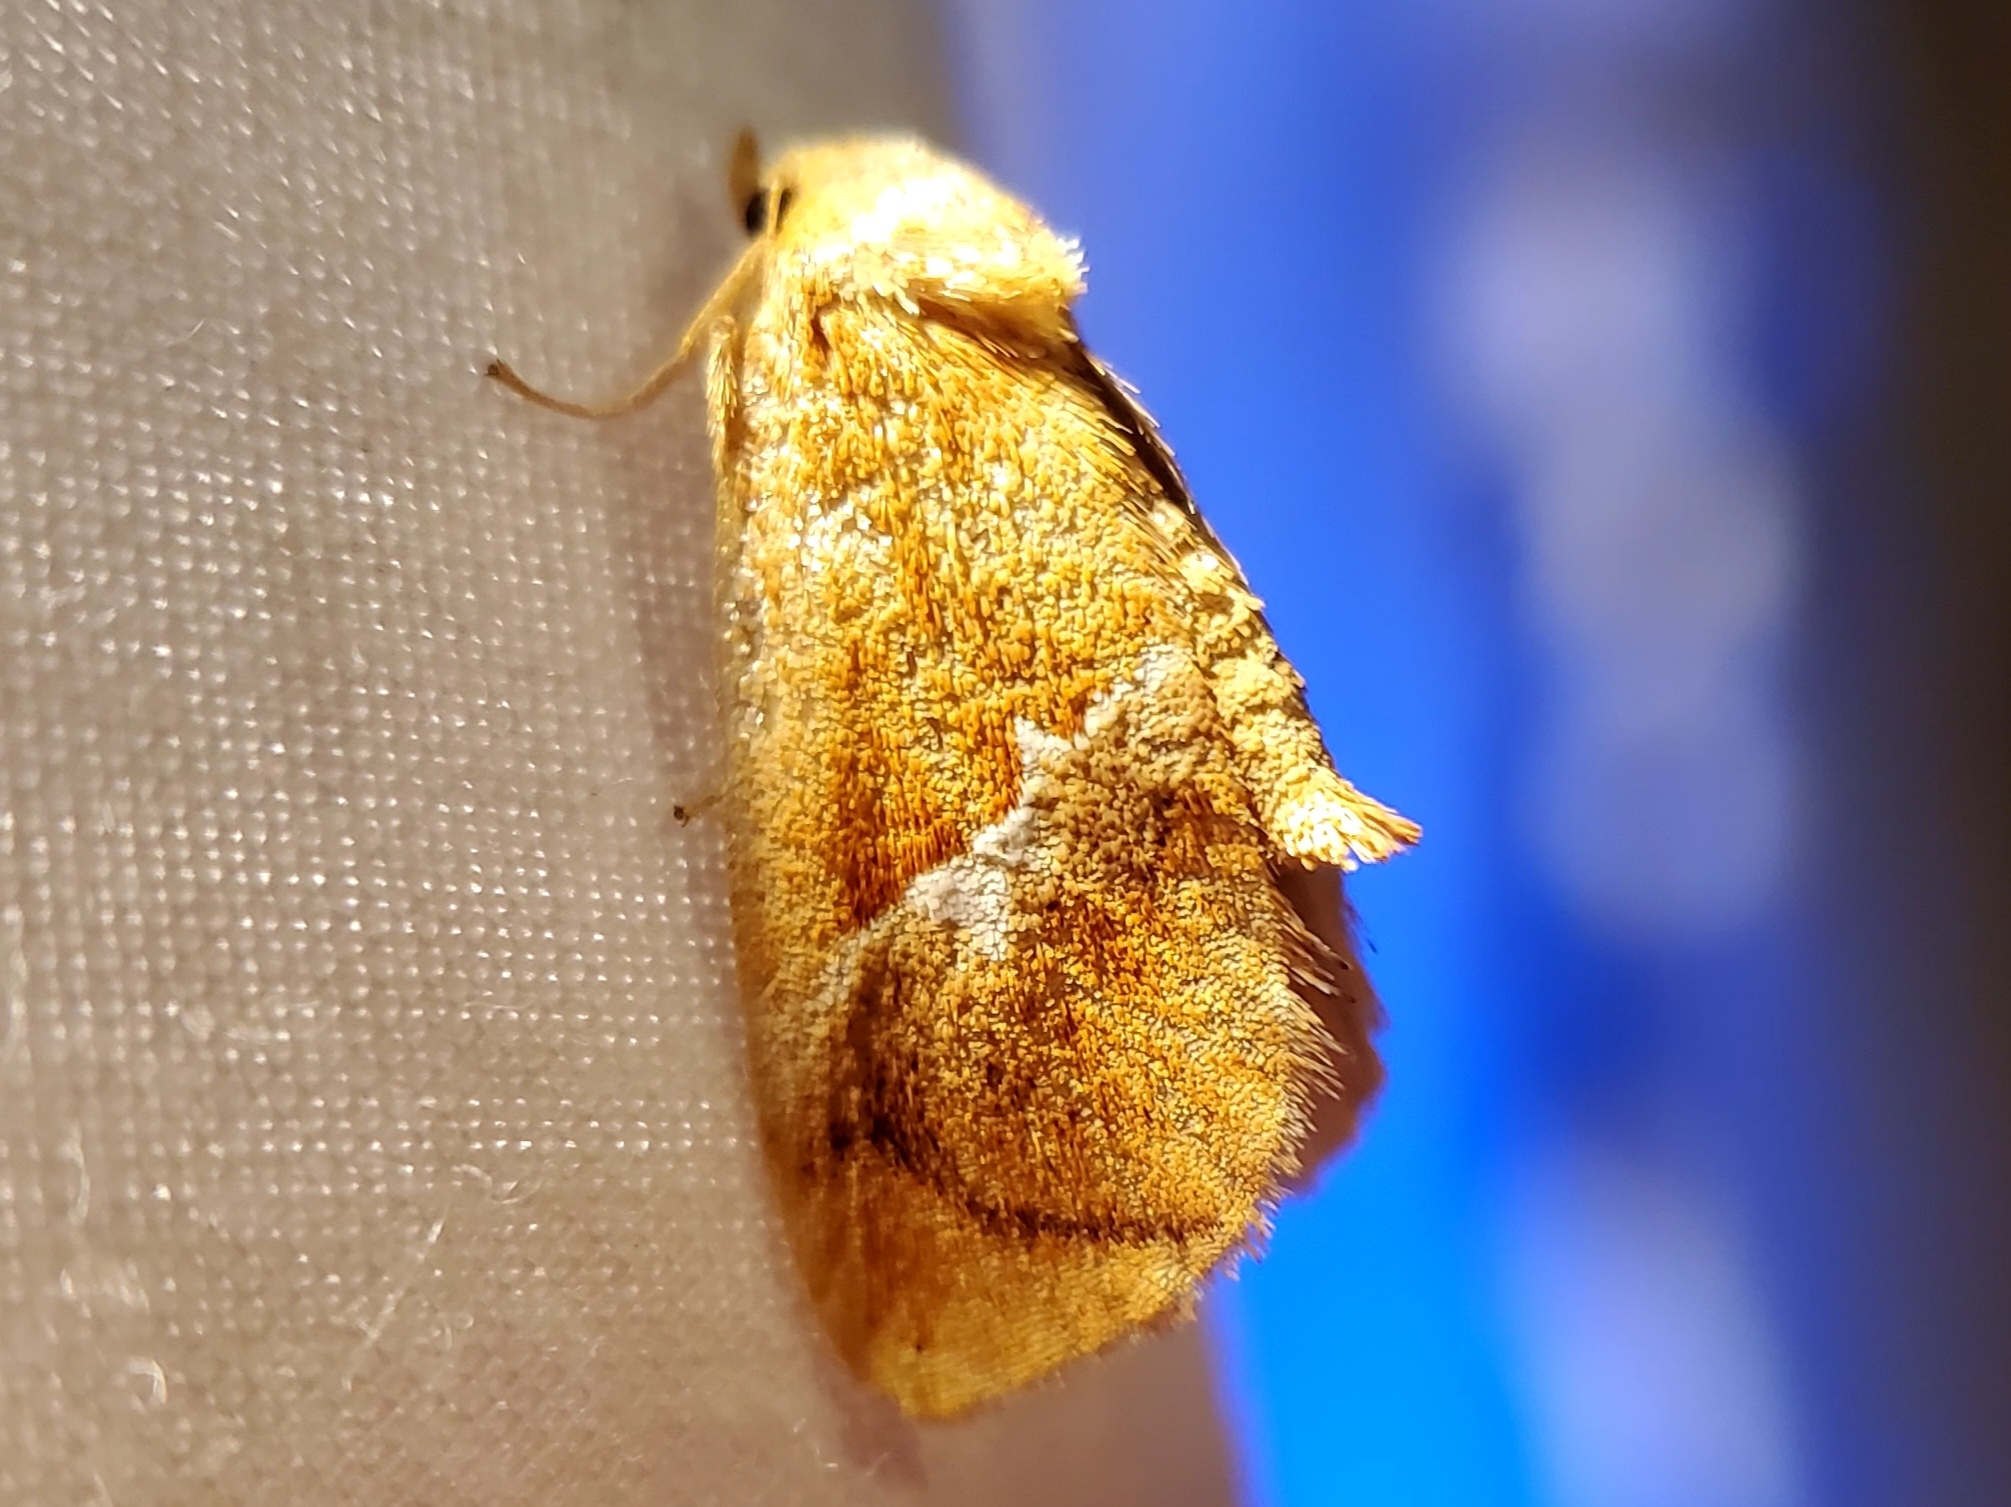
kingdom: Animalia
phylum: Arthropoda
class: Insecta
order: Lepidoptera
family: Limacodidae
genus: Lithacodes
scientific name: Lithacodes fasciola
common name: Yellow-shouldered slug moth
